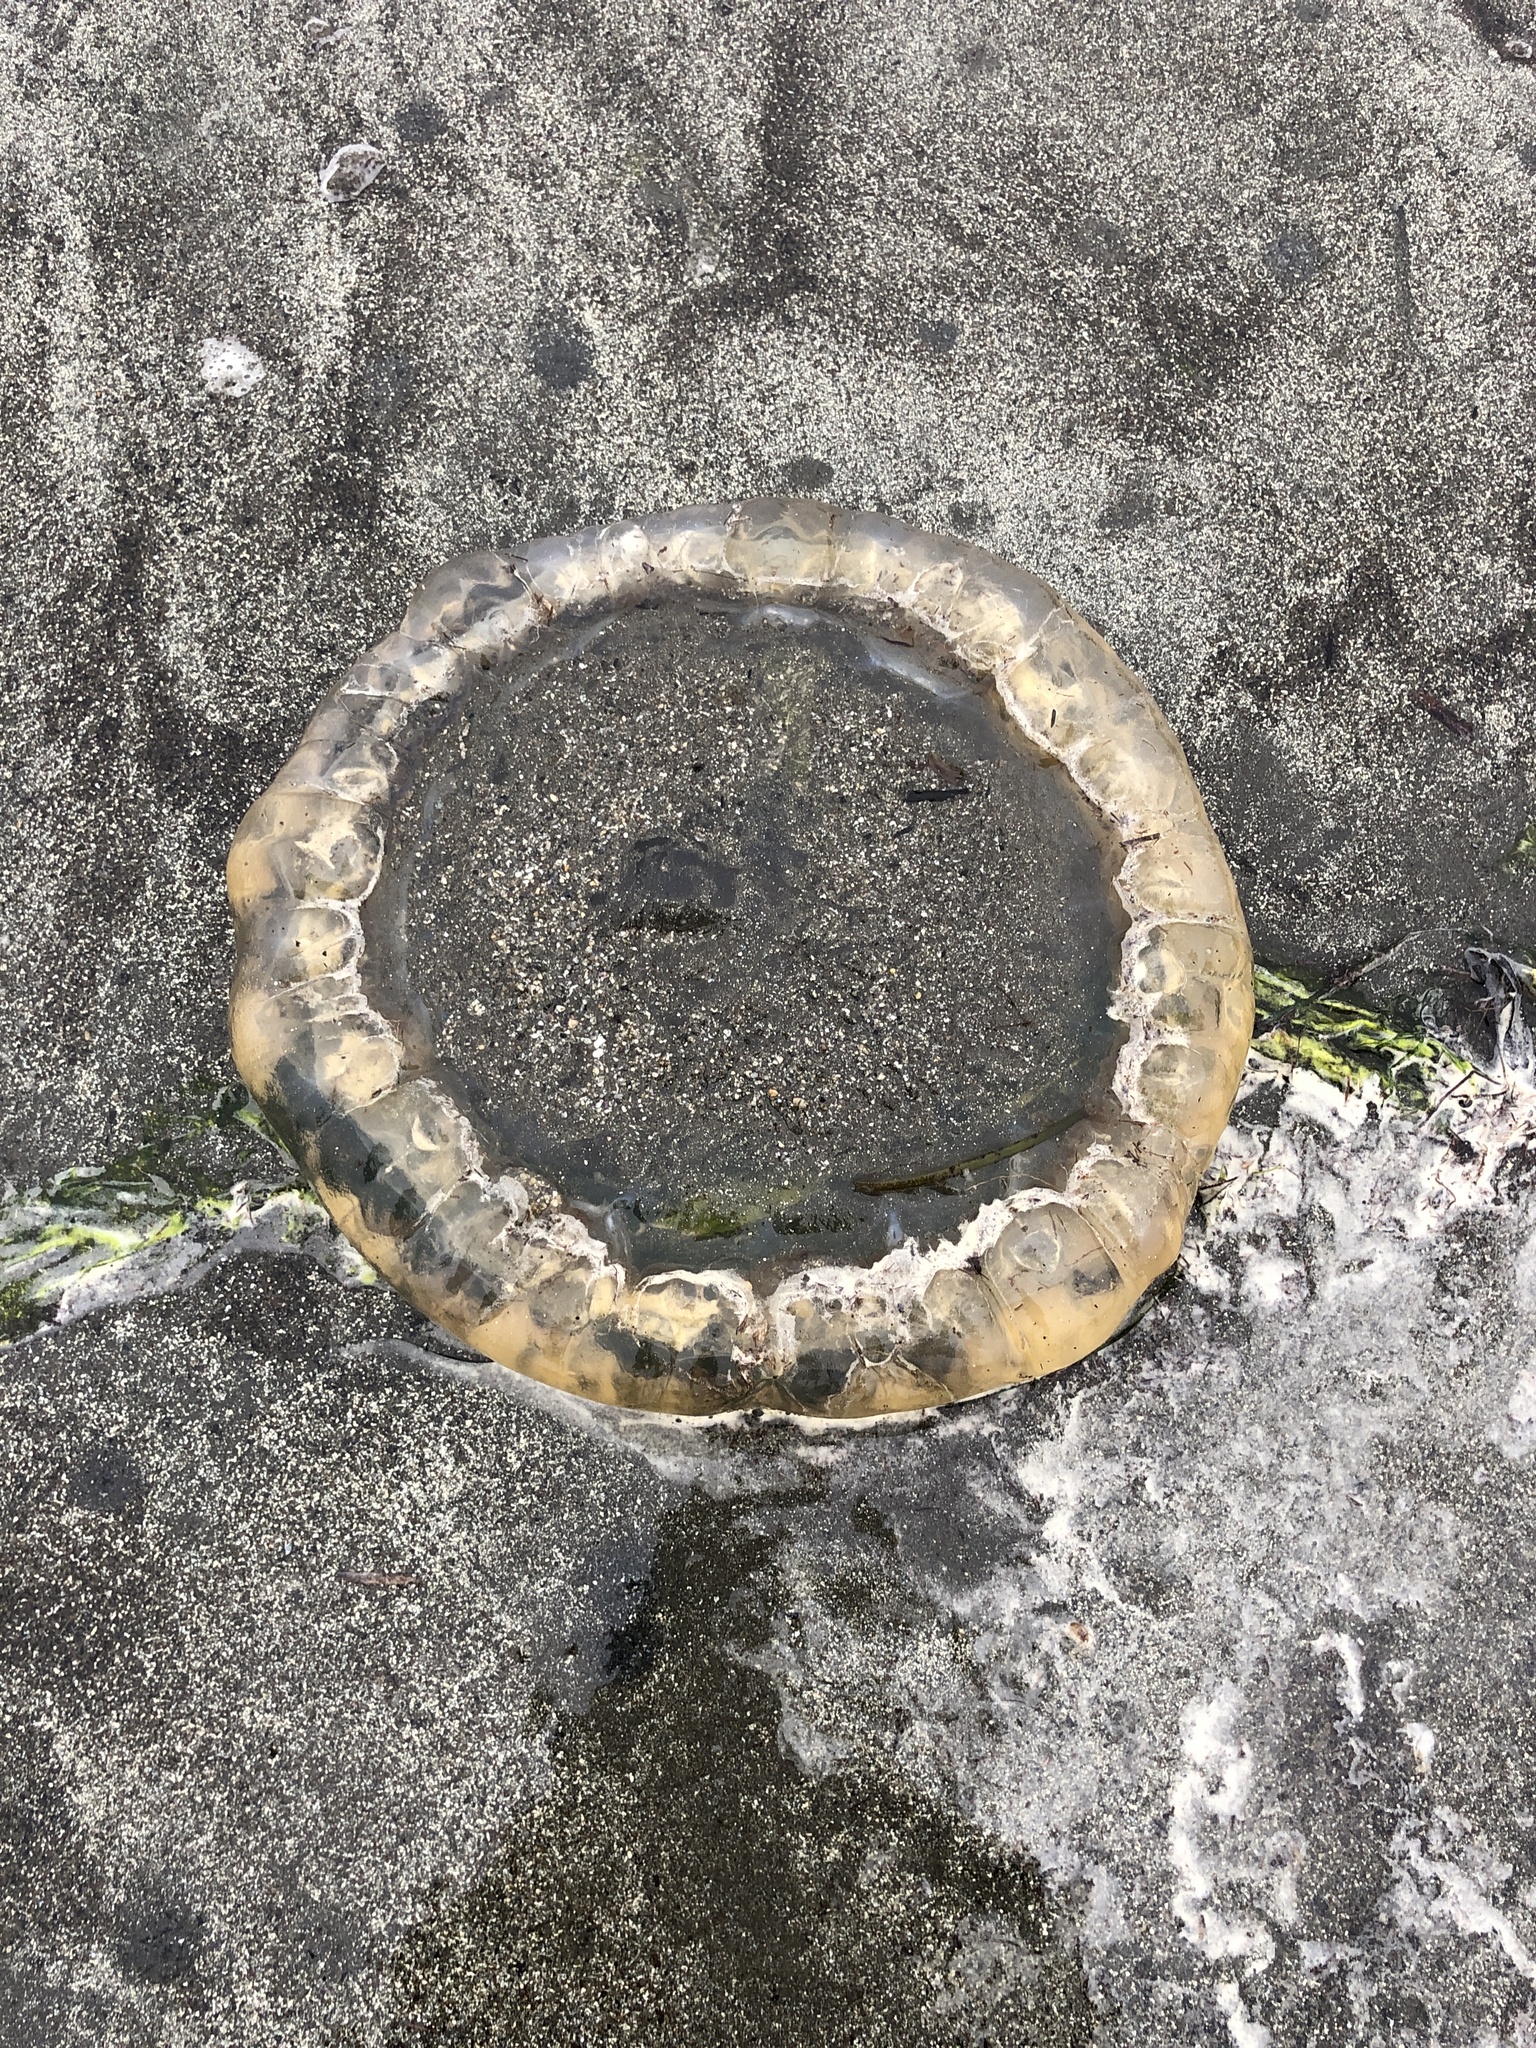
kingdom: Animalia
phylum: Cnidaria
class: Scyphozoa
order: Semaeostomeae
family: Pelagiidae
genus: Chrysaora
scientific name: Chrysaora fuscescens
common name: Sea nettle
